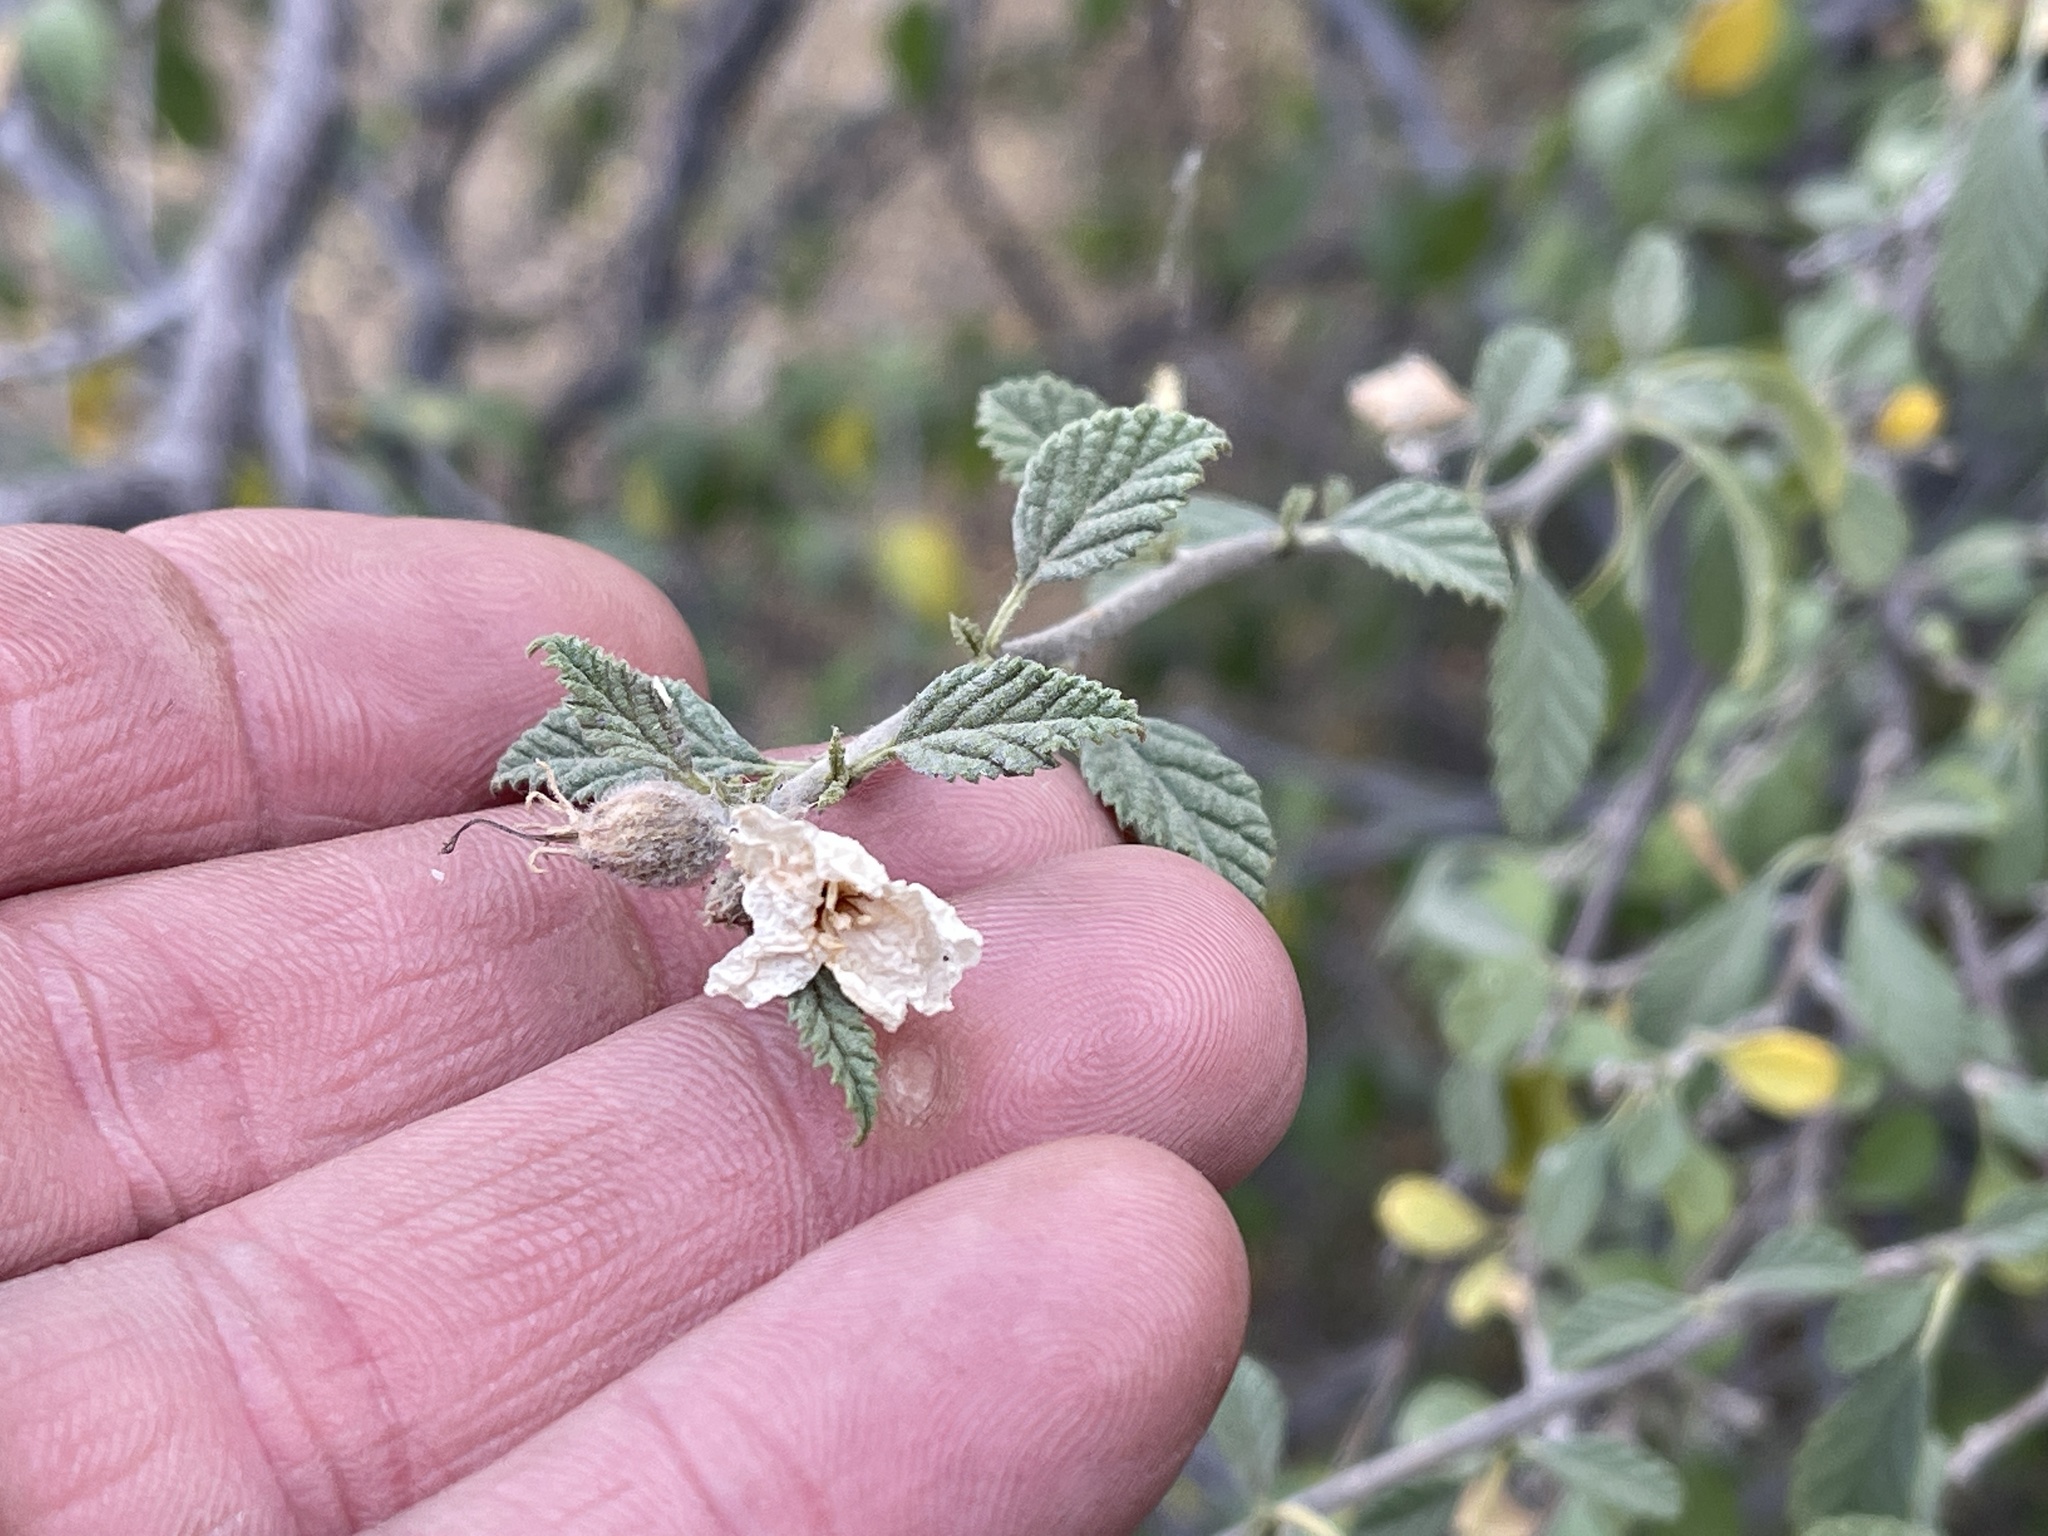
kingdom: Plantae
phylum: Tracheophyta
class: Magnoliopsida
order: Boraginales
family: Cordiaceae
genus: Cordia
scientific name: Cordia parvifolia
